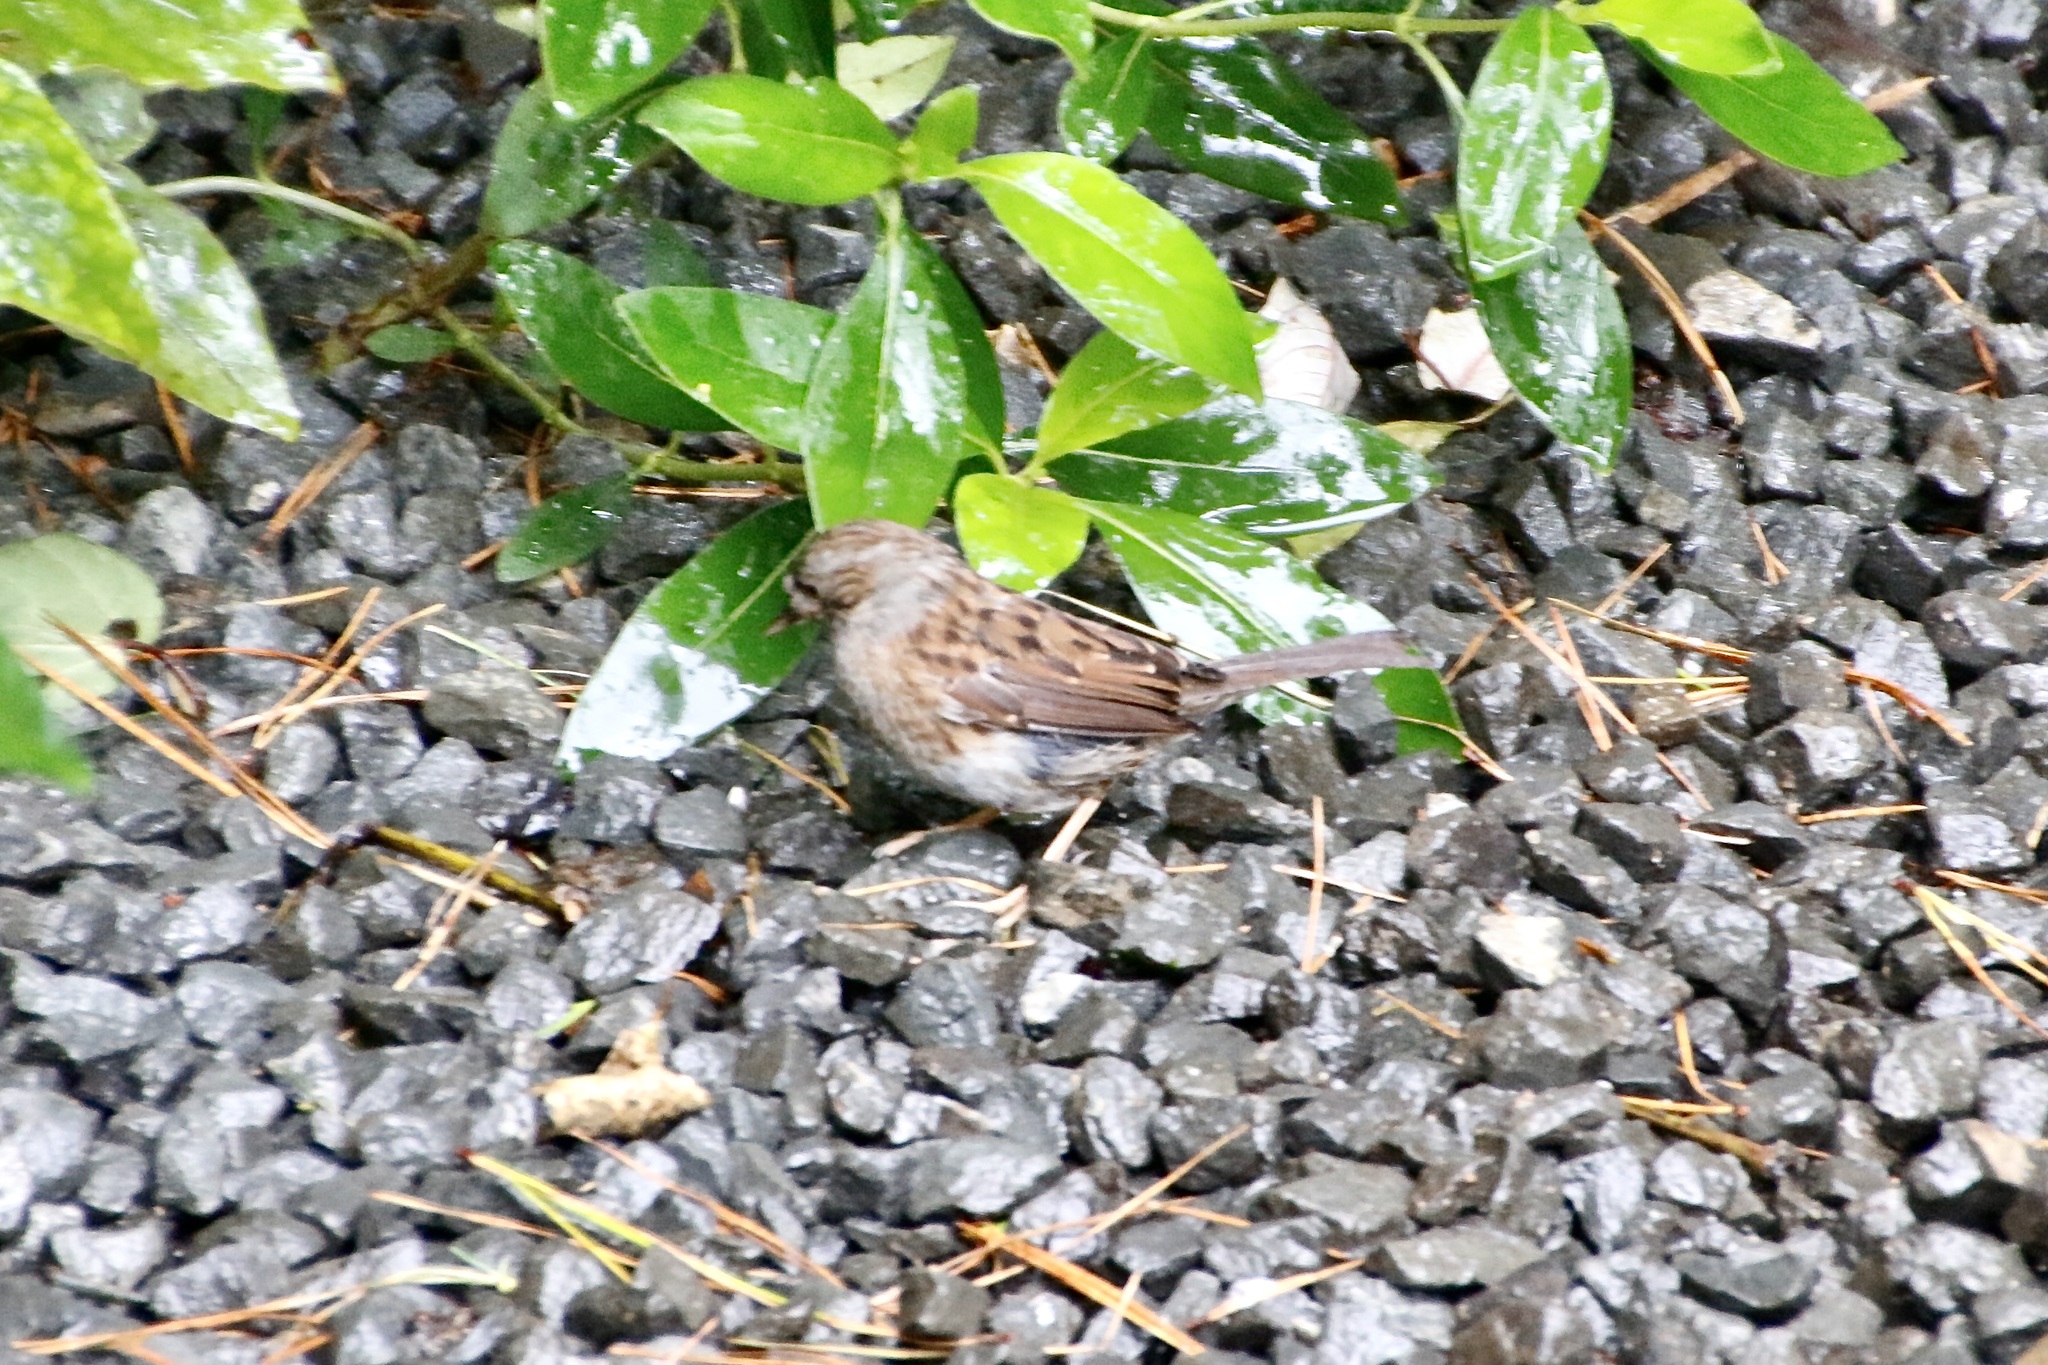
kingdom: Animalia
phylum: Chordata
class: Aves
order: Passeriformes
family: Prunellidae
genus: Prunella
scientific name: Prunella modularis
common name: Dunnock
